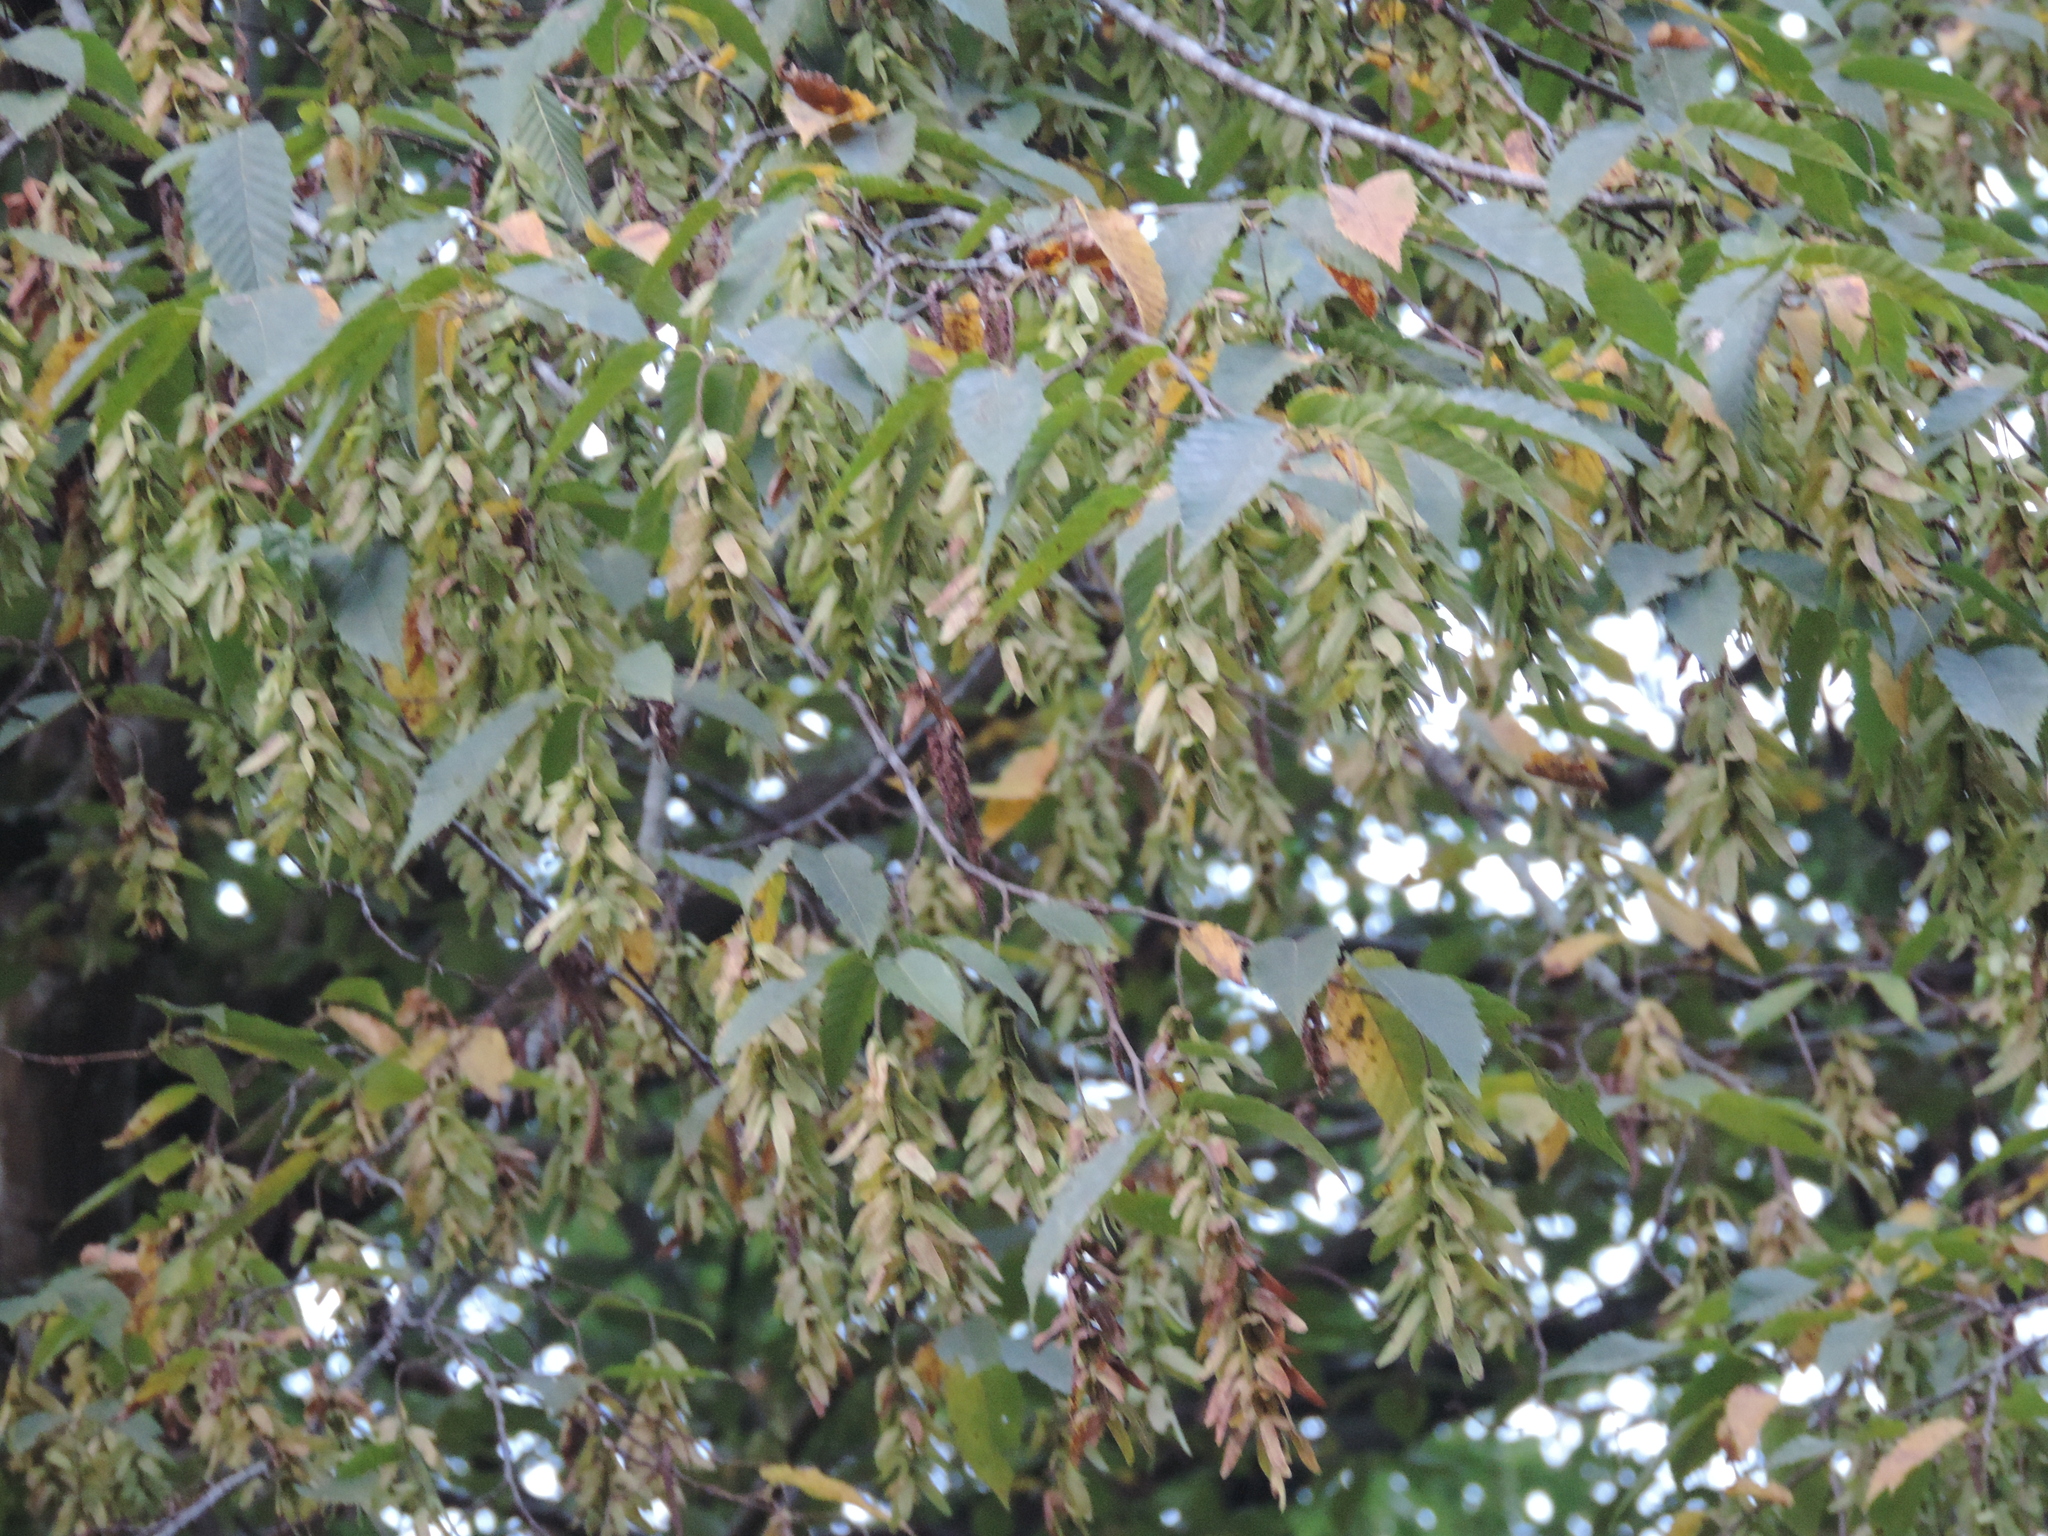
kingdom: Plantae
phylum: Tracheophyta
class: Magnoliopsida
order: Fagales
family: Betulaceae
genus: Carpinus
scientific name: Carpinus betulus
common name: Hornbeam
